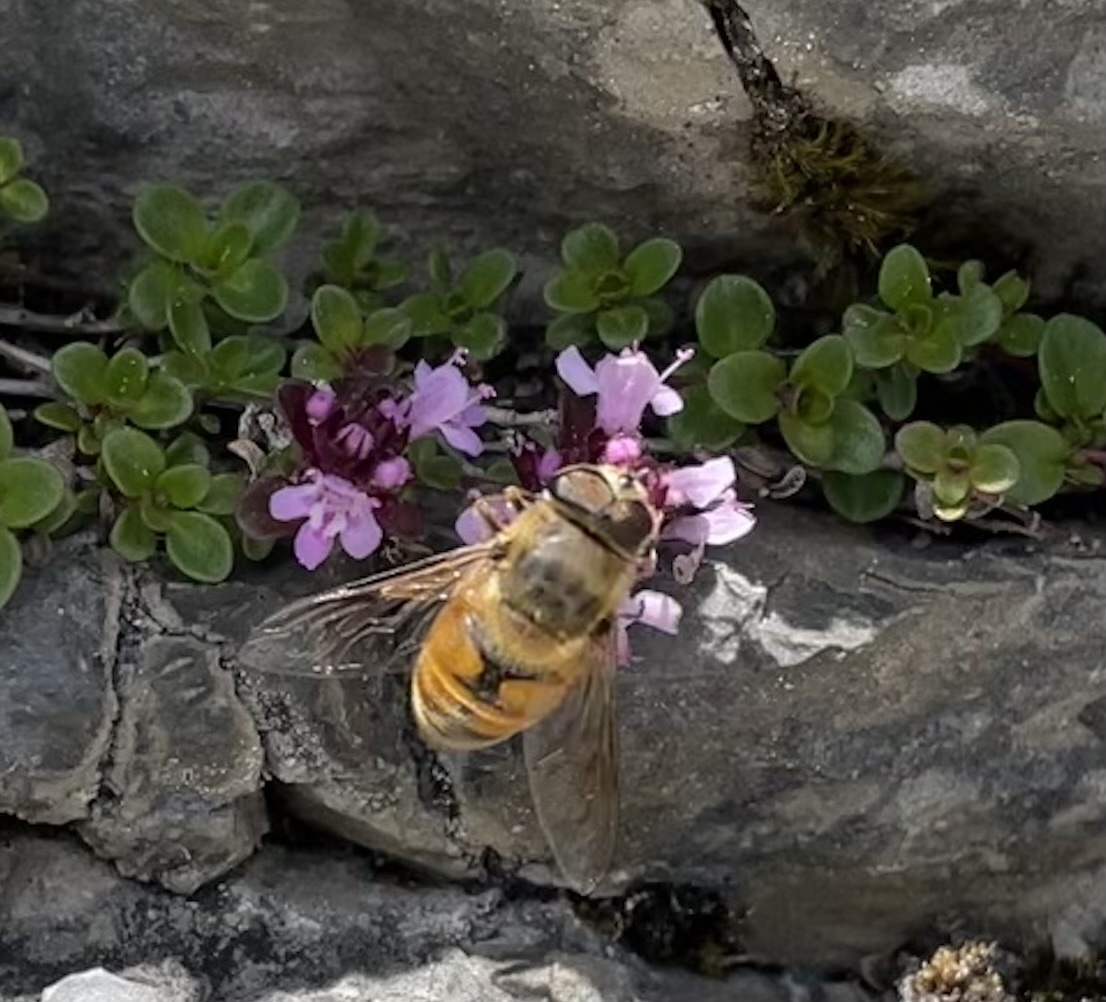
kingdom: Animalia
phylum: Arthropoda
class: Insecta
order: Diptera
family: Syrphidae
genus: Eristalis
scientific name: Eristalis tenax
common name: Drone fly
